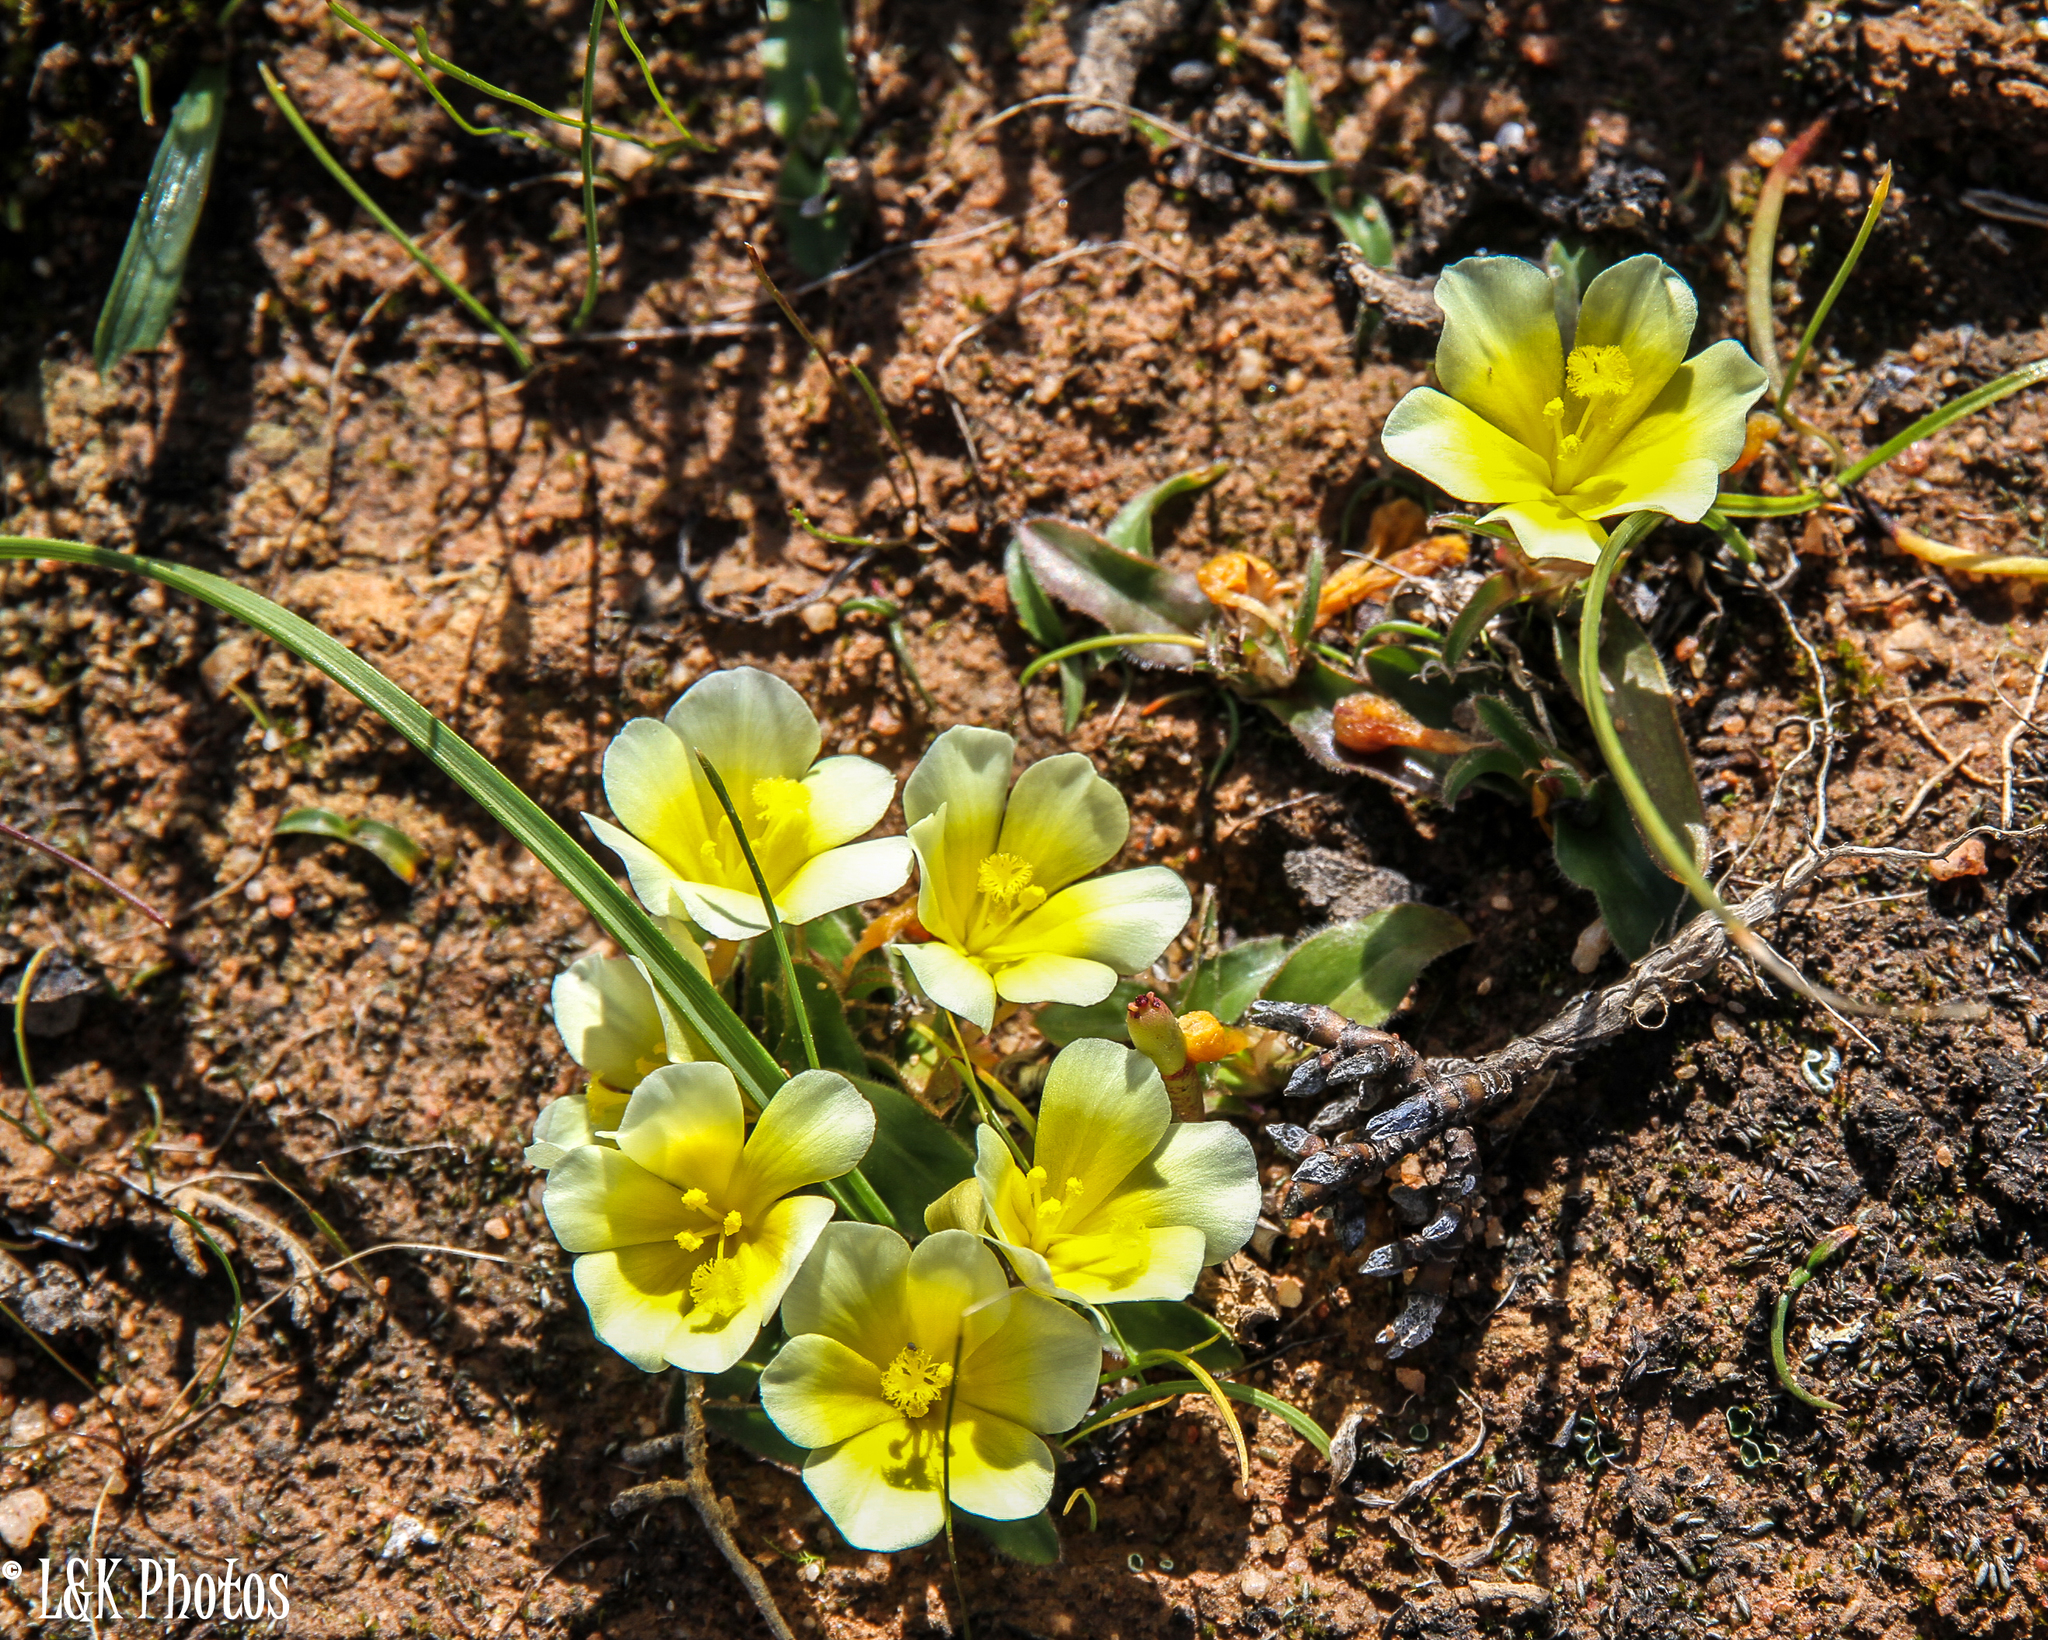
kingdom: Plantae
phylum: Tracheophyta
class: Liliopsida
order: Asparagales
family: Iridaceae
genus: Moraea
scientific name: Moraea luteoalba
